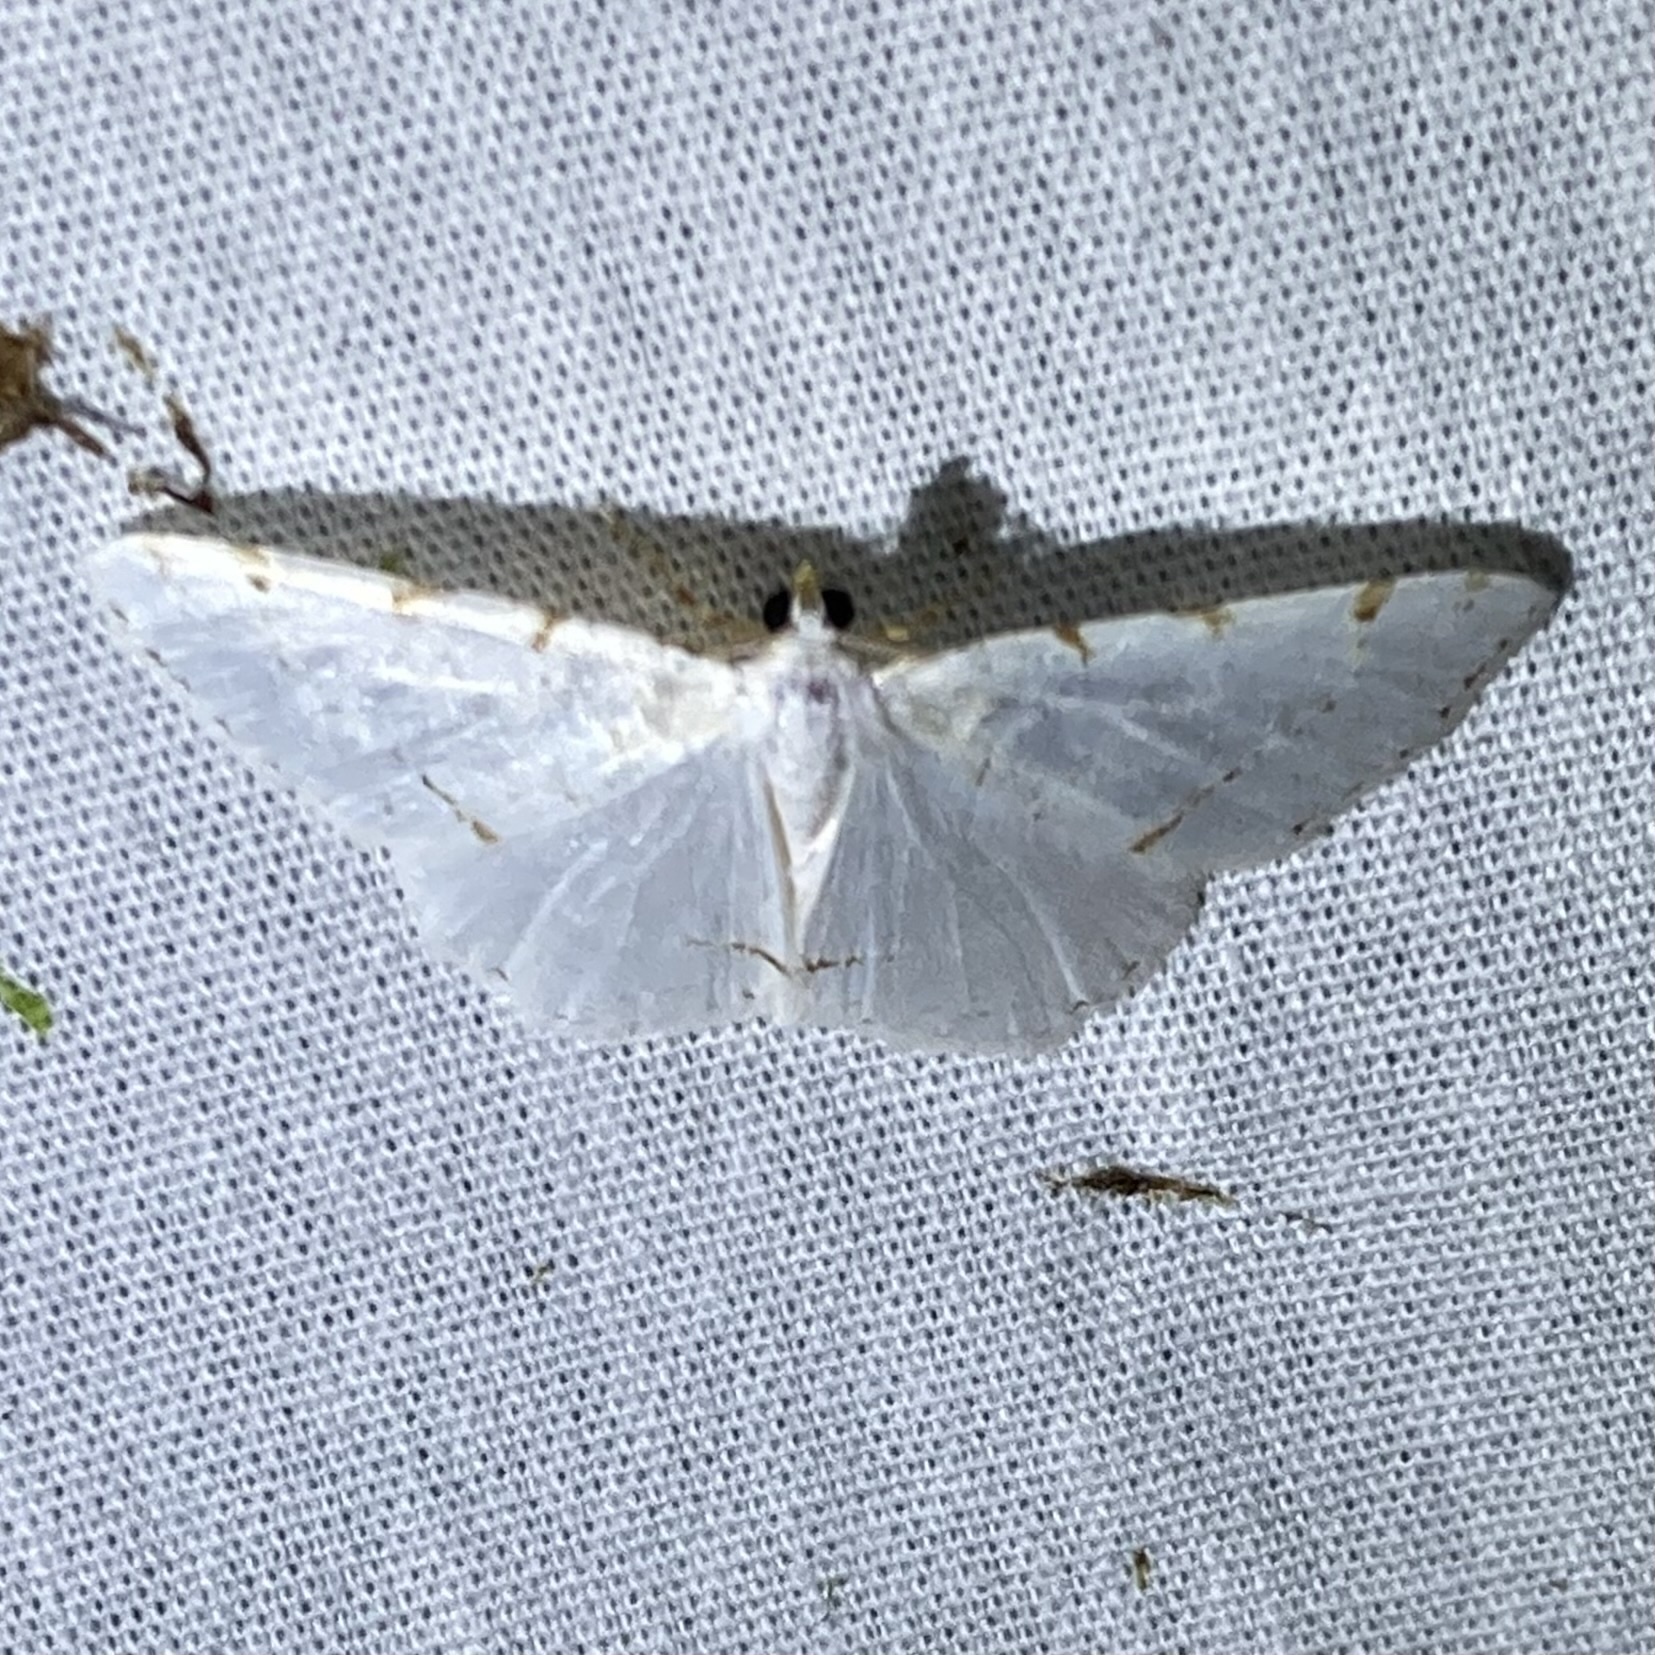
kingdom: Animalia
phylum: Arthropoda
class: Insecta
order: Lepidoptera
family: Geometridae
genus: Macaria
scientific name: Macaria pustularia
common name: Lesser maple spanworm moth
